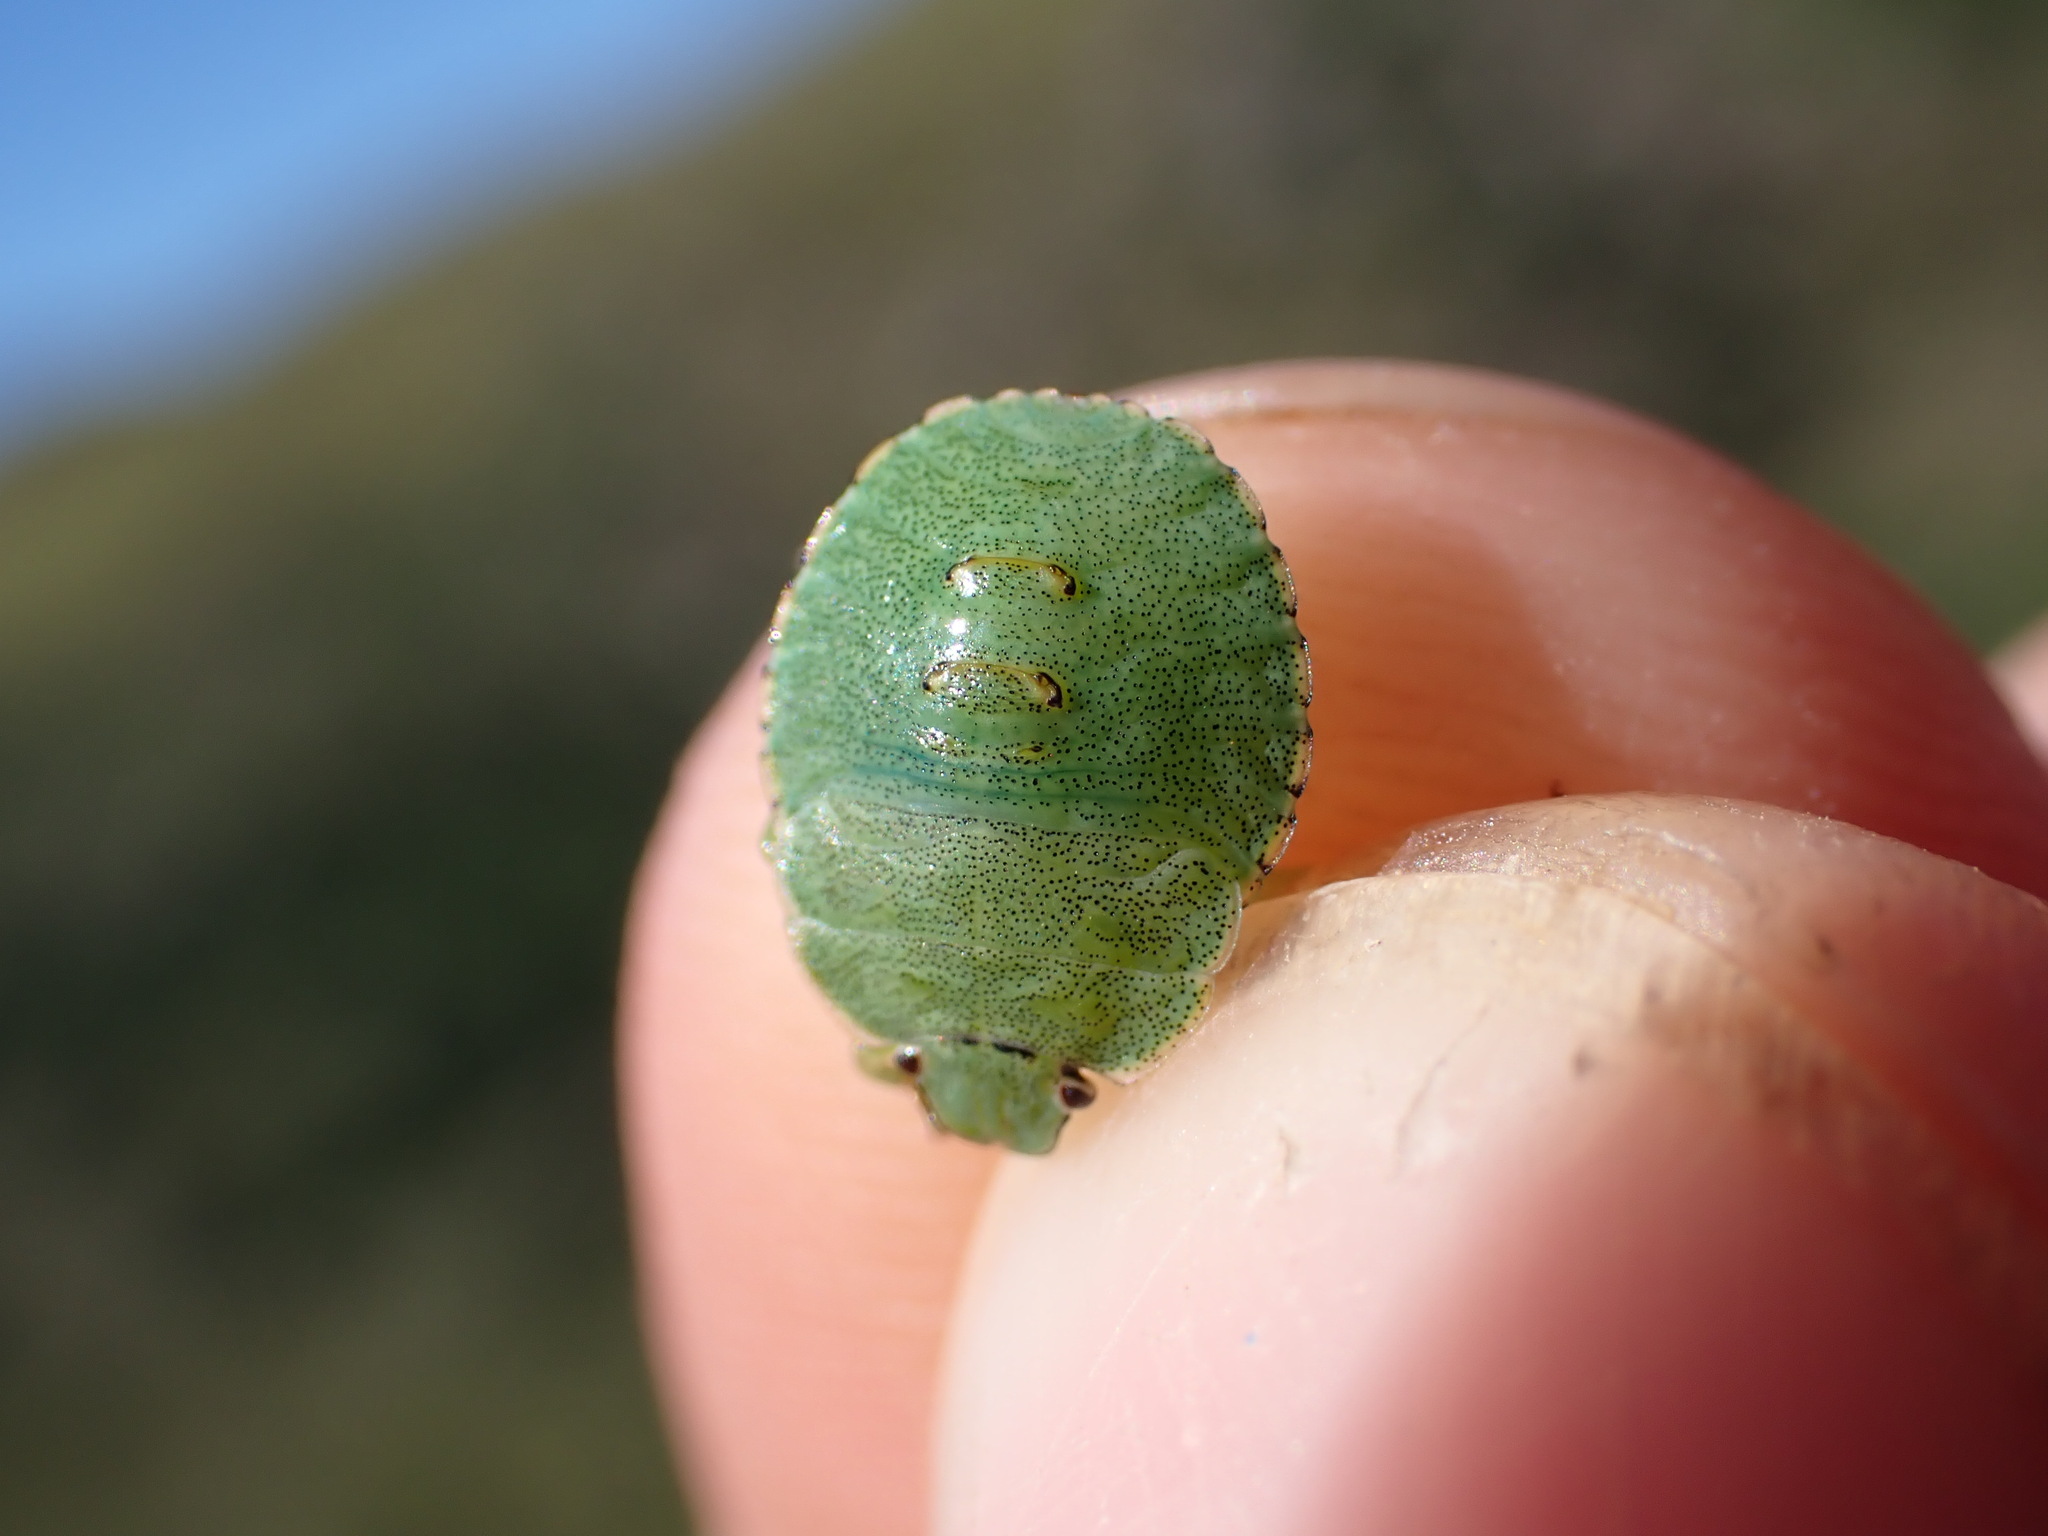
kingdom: Animalia
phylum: Arthropoda
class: Insecta
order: Hemiptera
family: Pentatomidae
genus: Palomena
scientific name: Palomena prasina
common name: Green shieldbug
